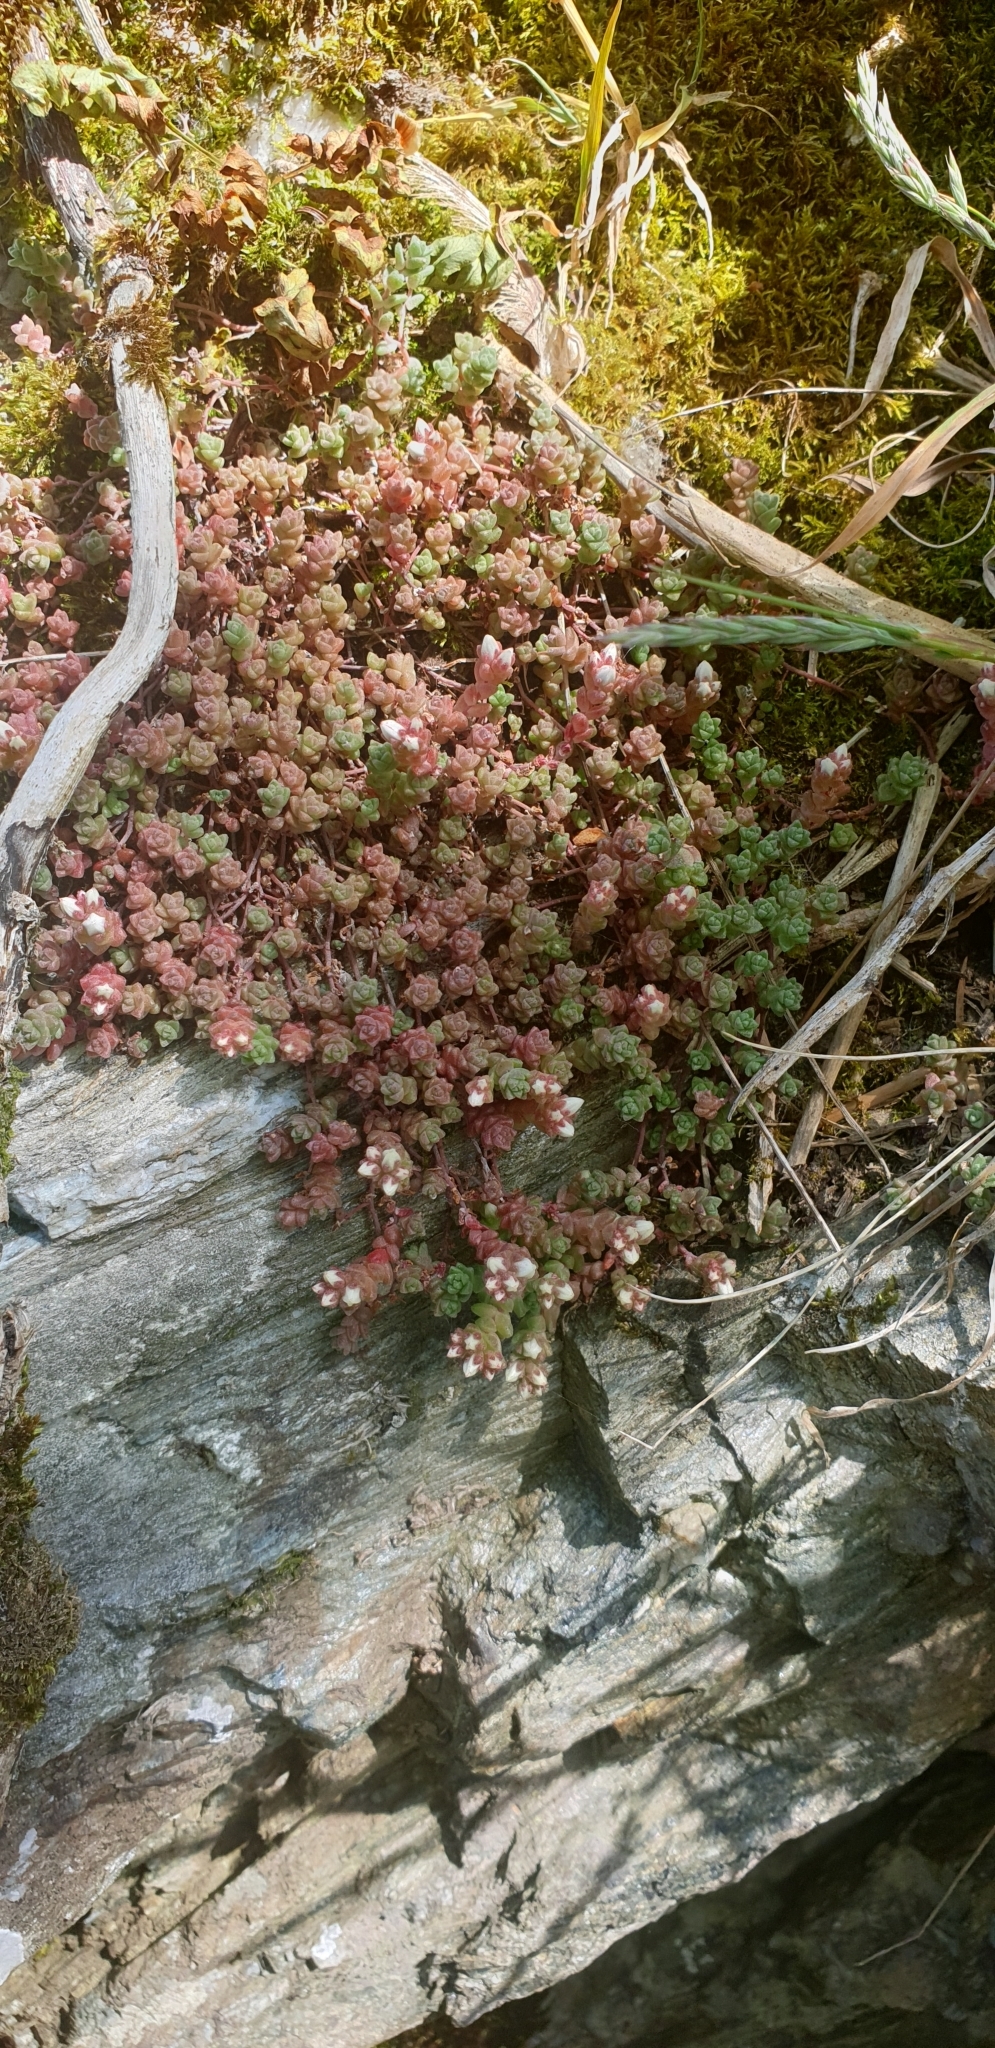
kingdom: Plantae
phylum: Tracheophyta
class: Magnoliopsida
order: Saxifragales
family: Crassulaceae
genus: Sedum
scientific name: Sedum anglicum
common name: English stonecrop
